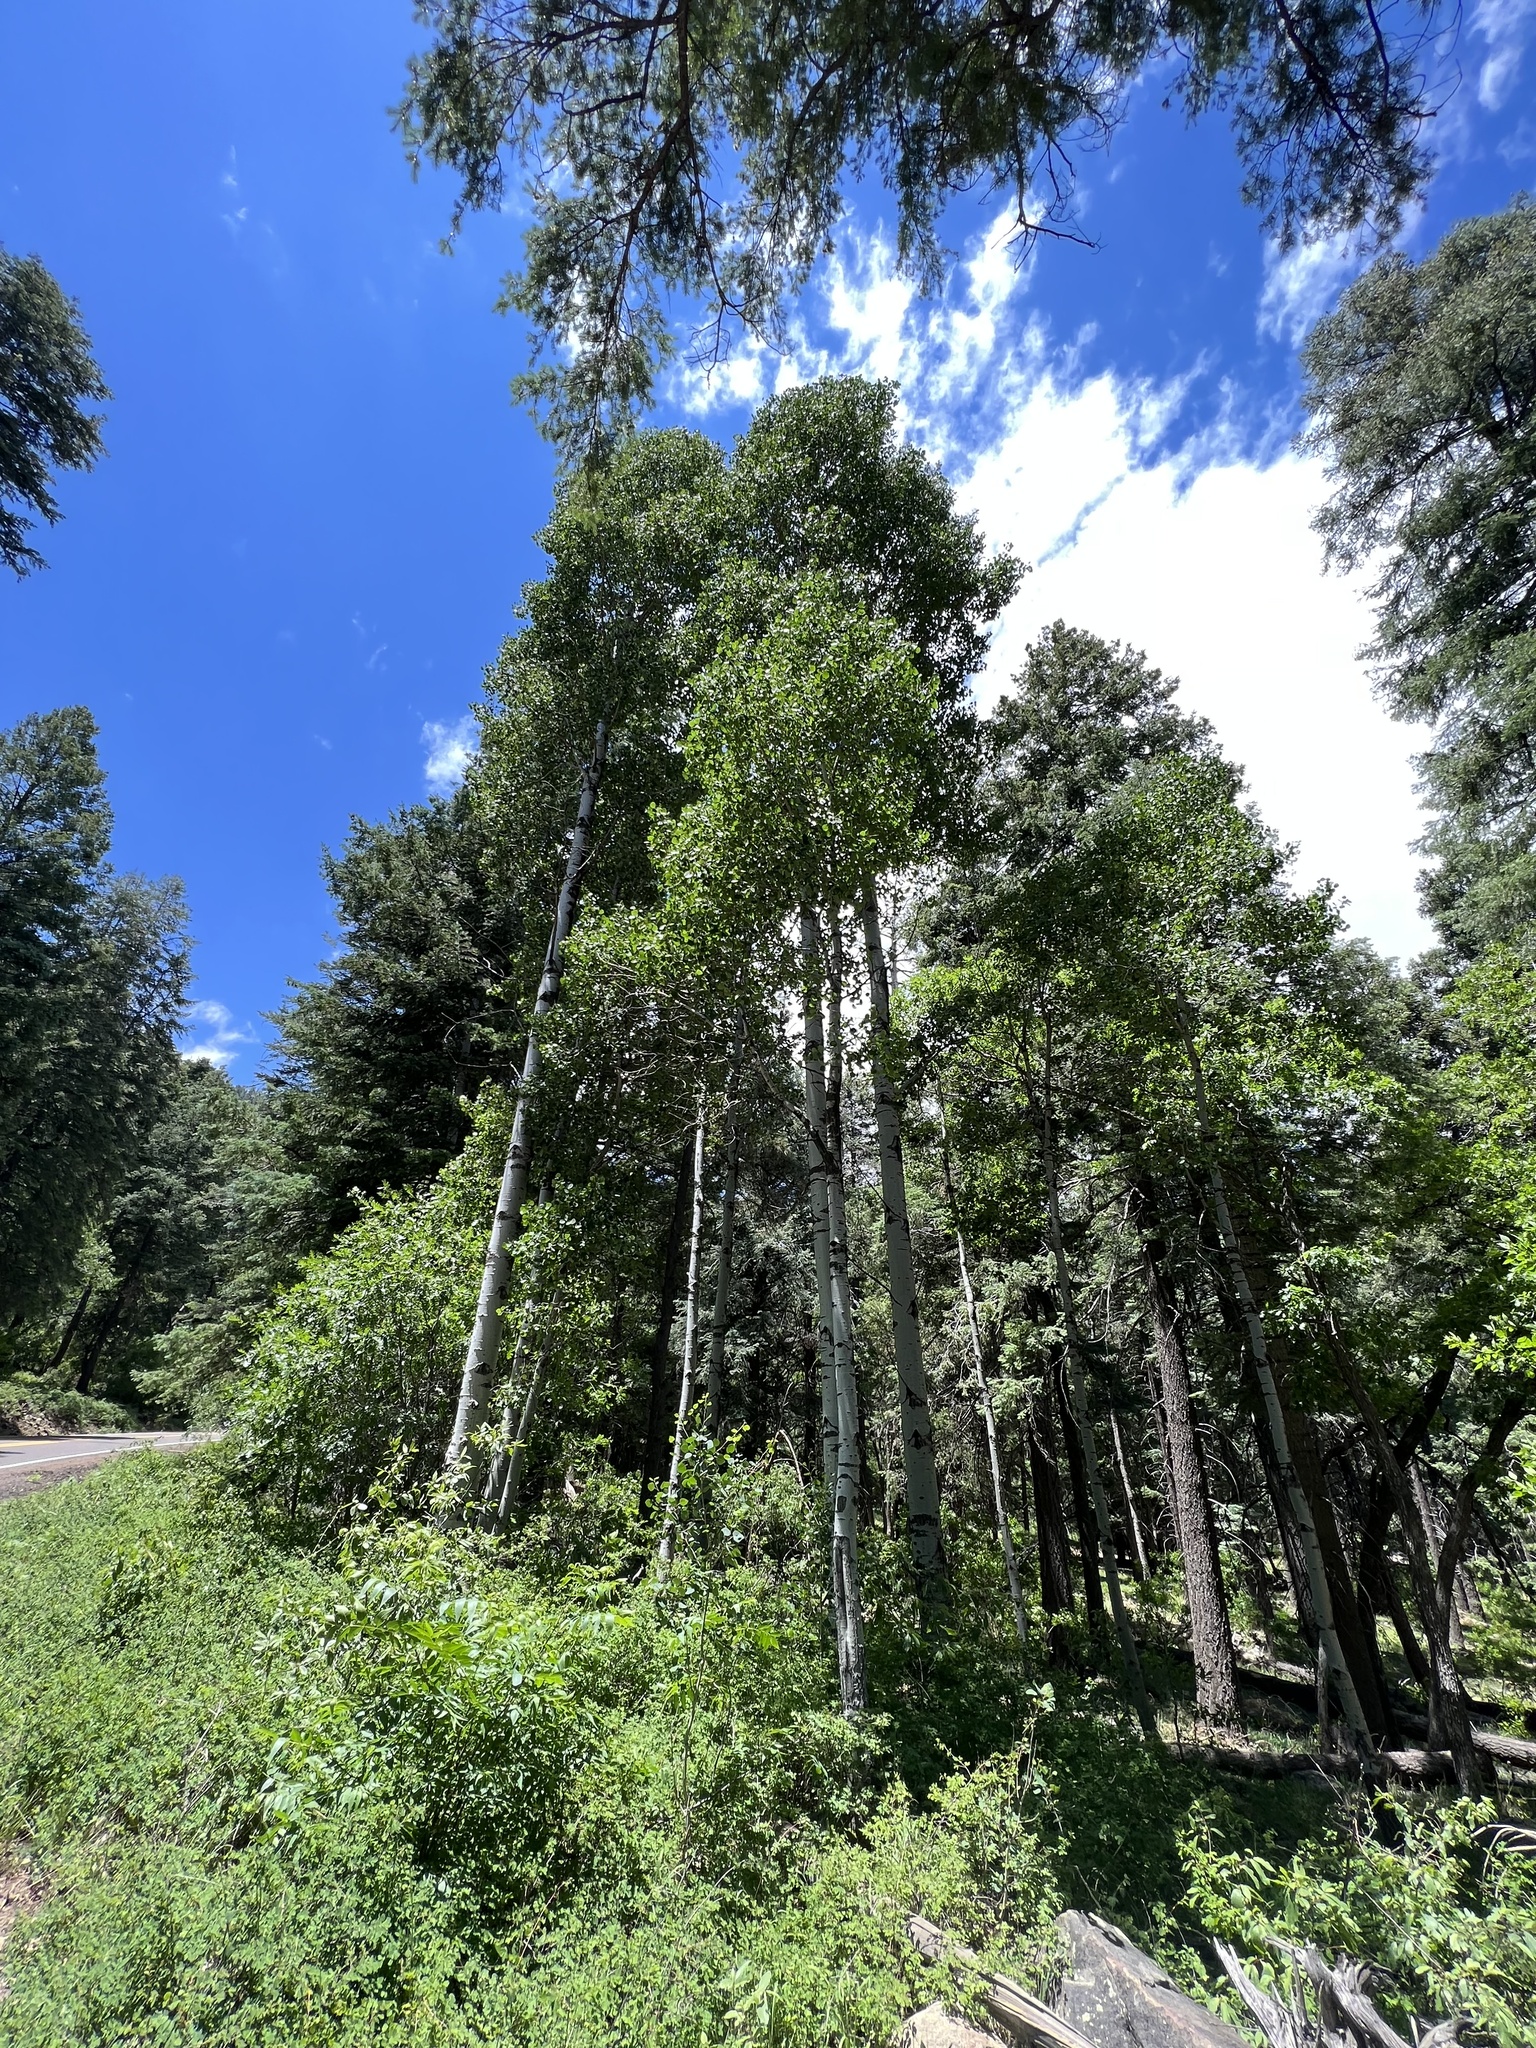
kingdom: Plantae
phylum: Tracheophyta
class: Magnoliopsida
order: Malpighiales
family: Salicaceae
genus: Populus
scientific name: Populus tremuloides
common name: Quaking aspen
